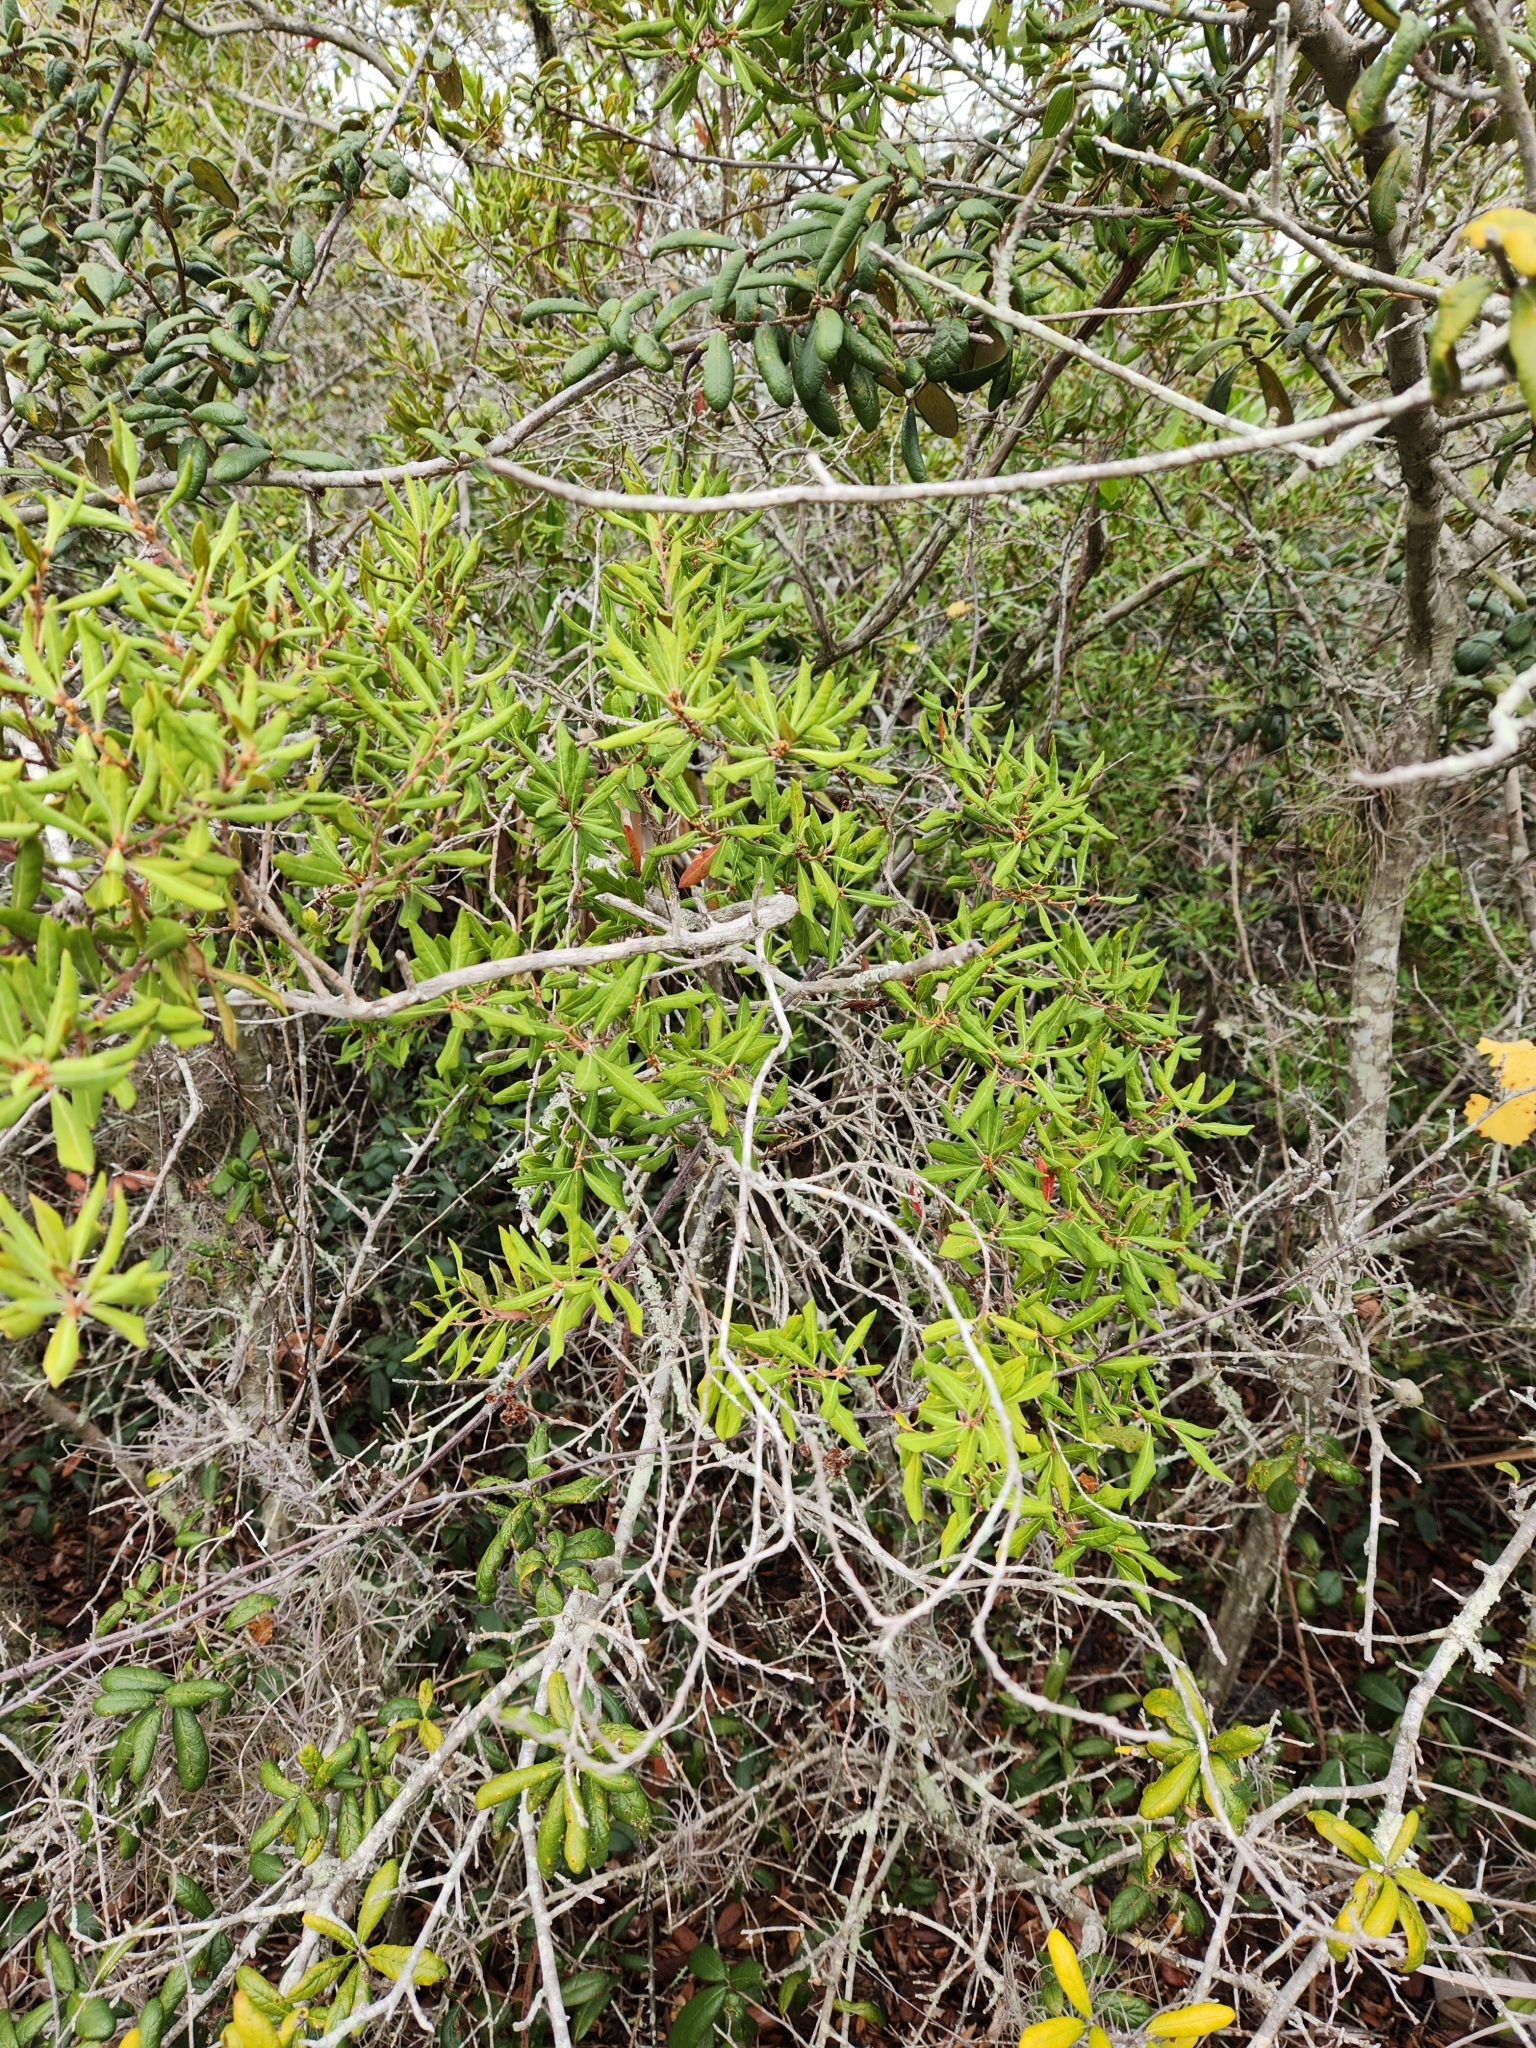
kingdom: Plantae
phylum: Tracheophyta
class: Magnoliopsida
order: Ericales
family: Ericaceae
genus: Lyonia
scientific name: Lyonia ferruginea
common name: Rusty lyonia
